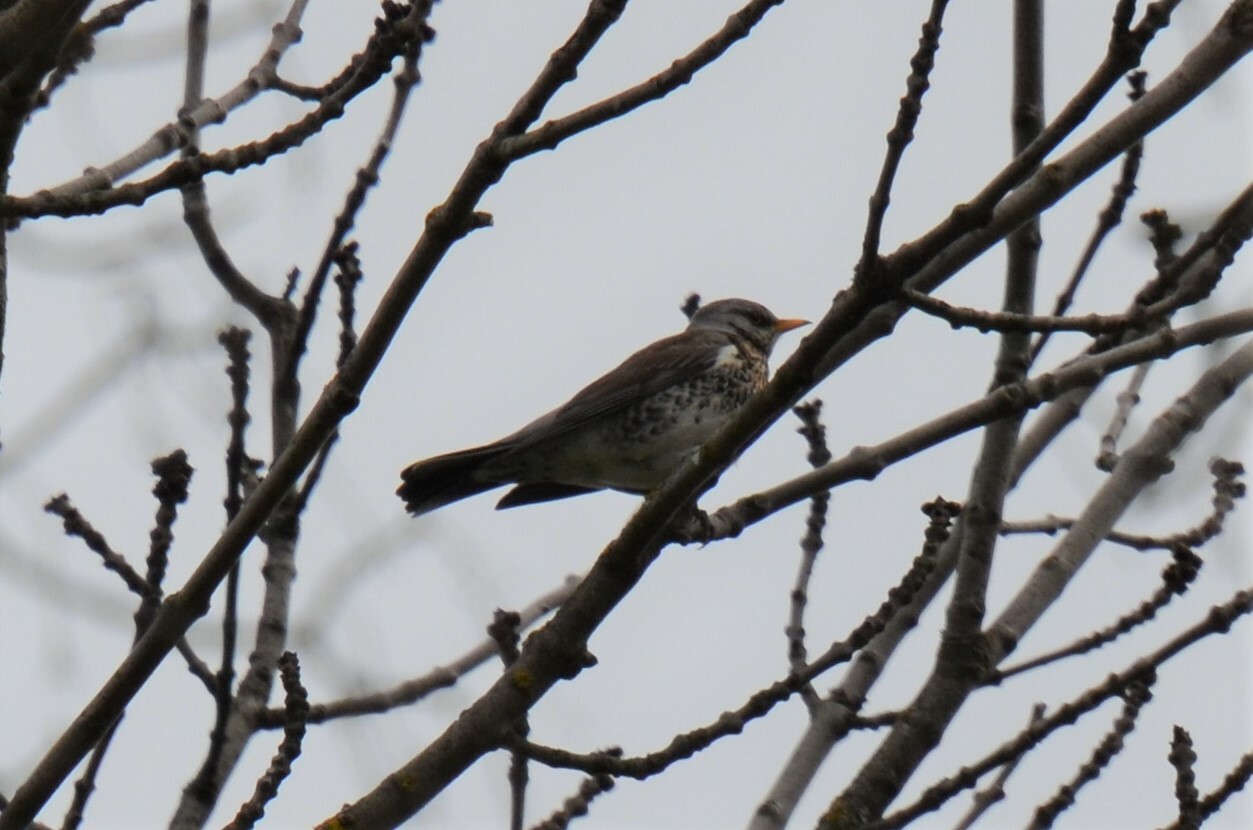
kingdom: Animalia
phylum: Chordata
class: Aves
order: Passeriformes
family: Turdidae
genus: Turdus
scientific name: Turdus pilaris
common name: Fieldfare
